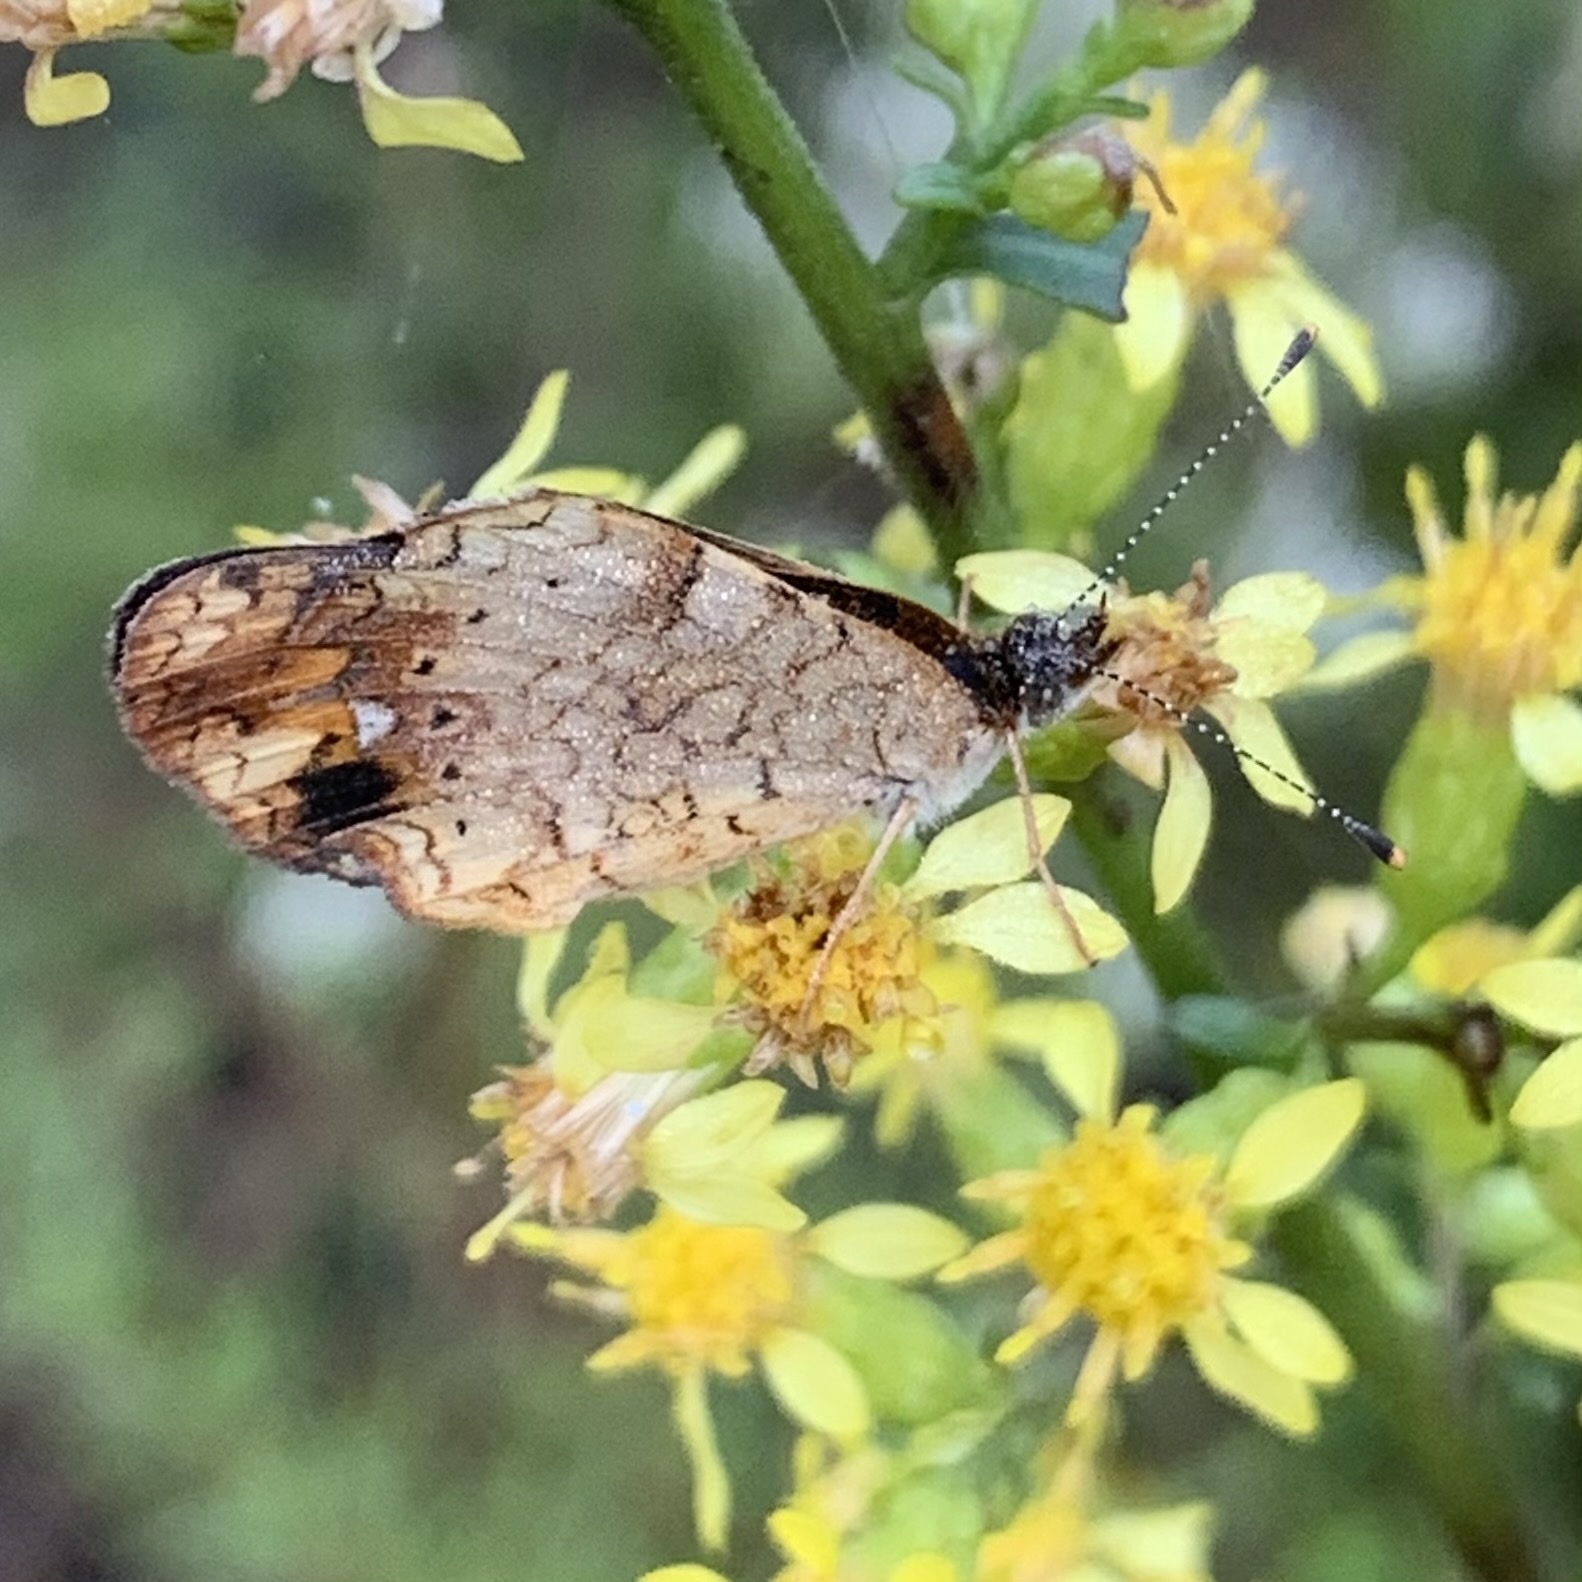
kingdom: Animalia
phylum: Arthropoda
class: Insecta
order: Lepidoptera
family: Nymphalidae
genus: Phyciodes
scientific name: Phyciodes tharos
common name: Pearl crescent
